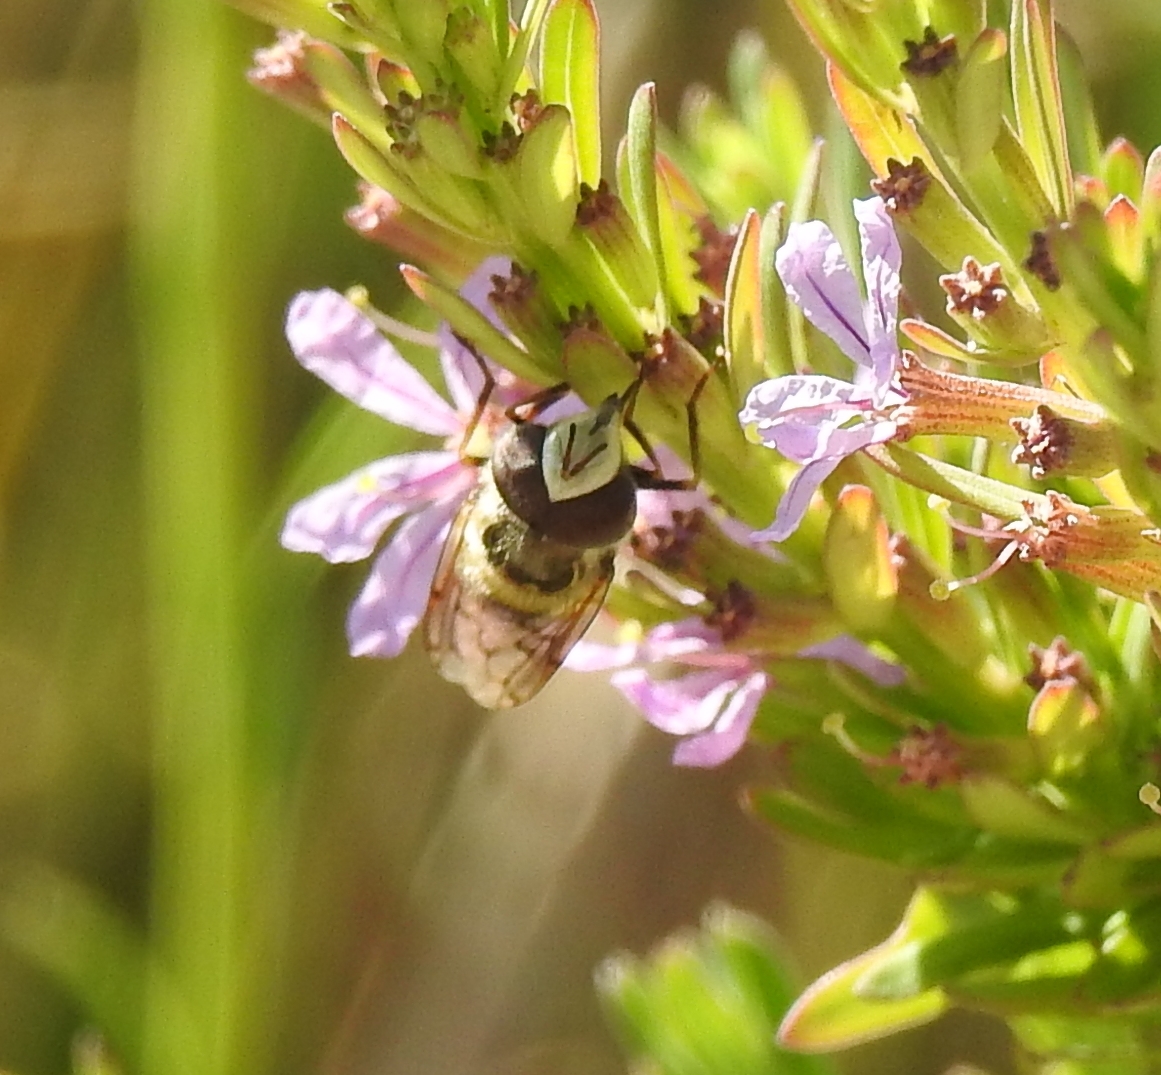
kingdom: Animalia
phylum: Arthropoda
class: Insecta
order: Diptera
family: Syrphidae
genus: Copestylum
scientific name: Copestylum satur
